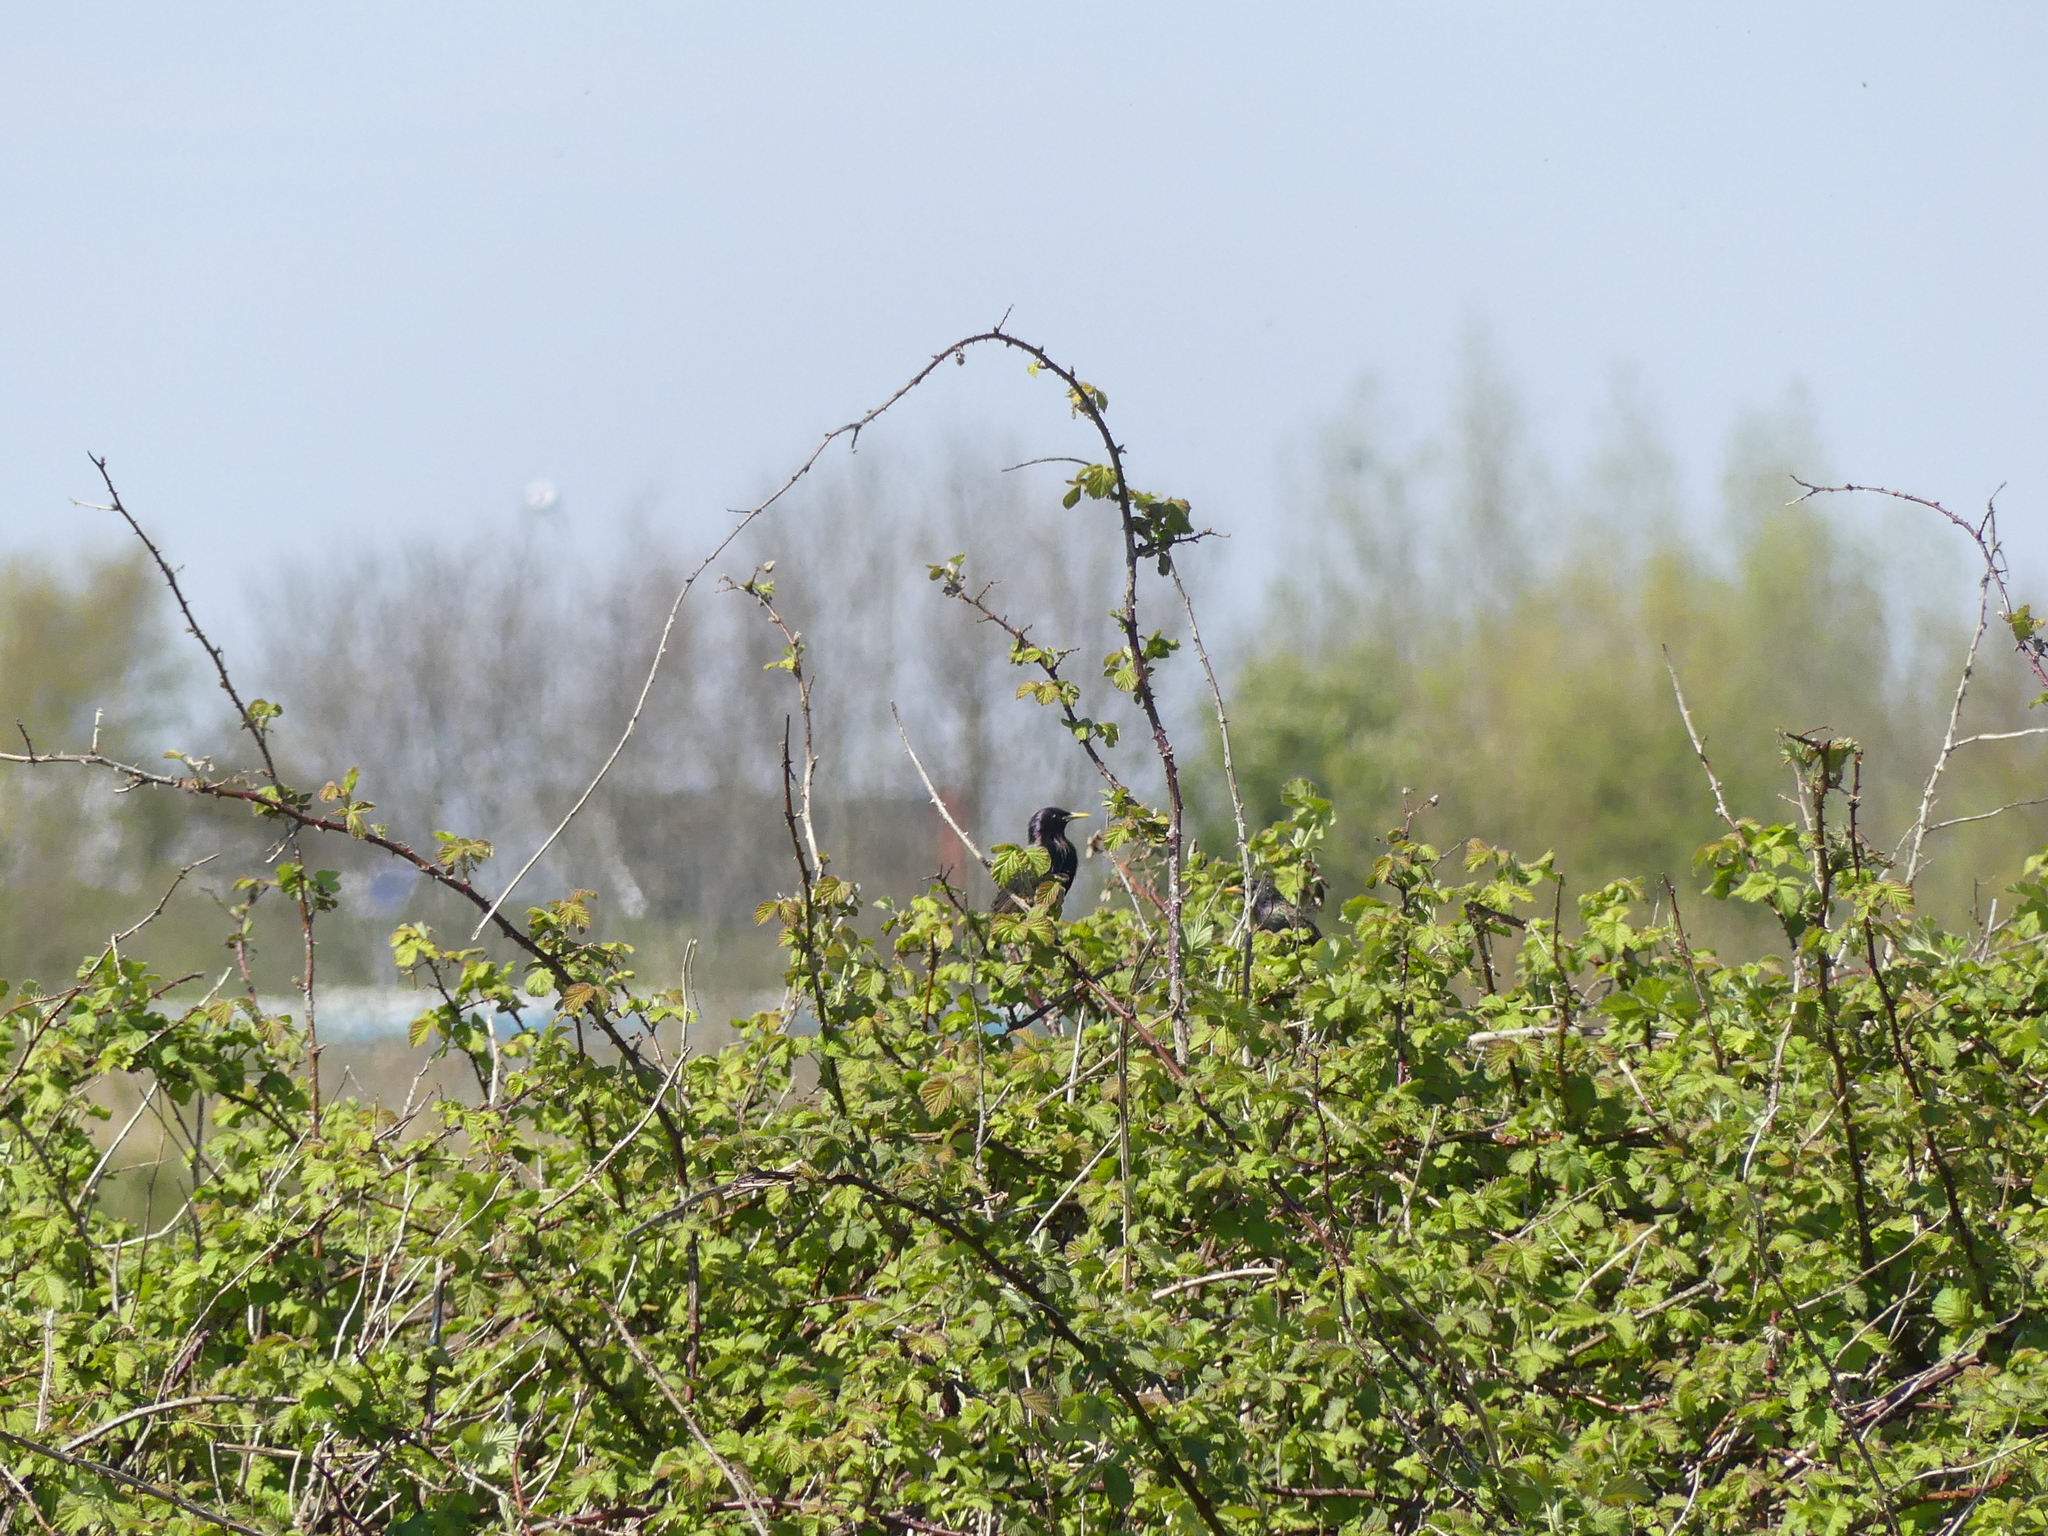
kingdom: Animalia
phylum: Chordata
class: Aves
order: Passeriformes
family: Sturnidae
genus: Sturnus
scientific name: Sturnus vulgaris
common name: Common starling
